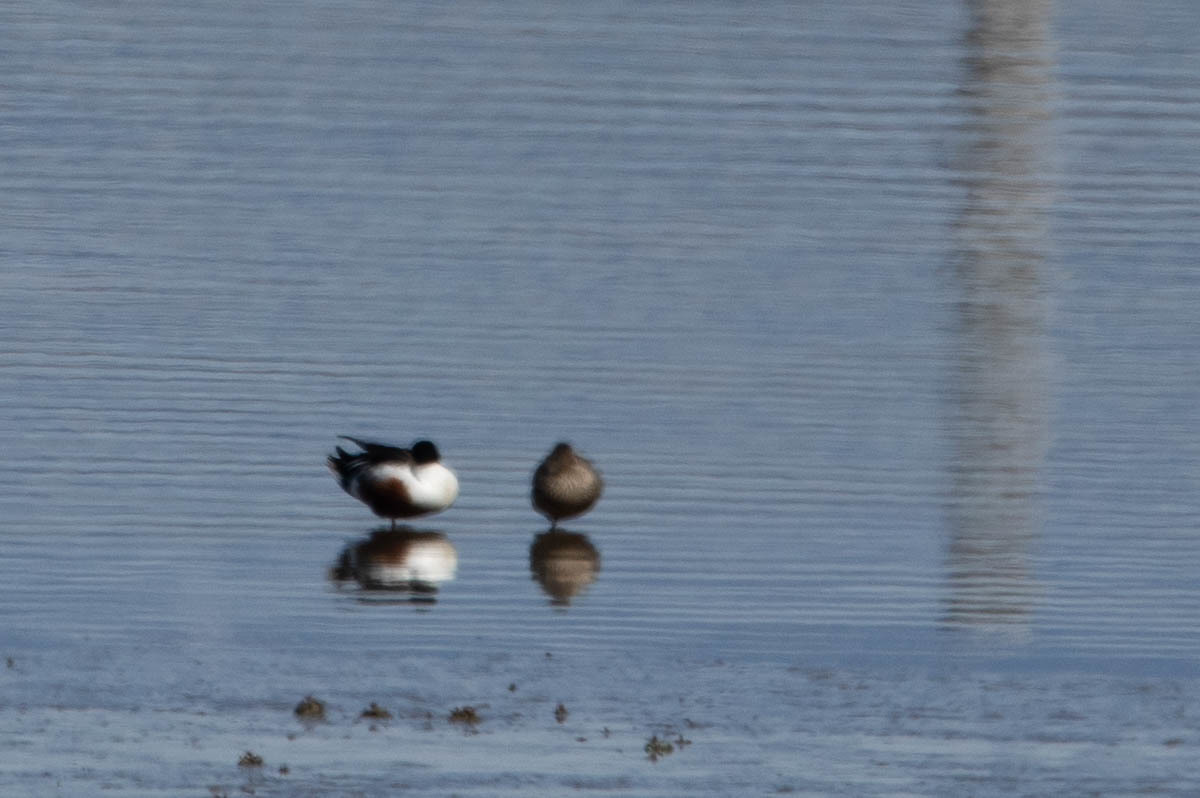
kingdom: Animalia
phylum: Chordata
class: Aves
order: Anseriformes
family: Anatidae
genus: Spatula
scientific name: Spatula clypeata
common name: Northern shoveler
